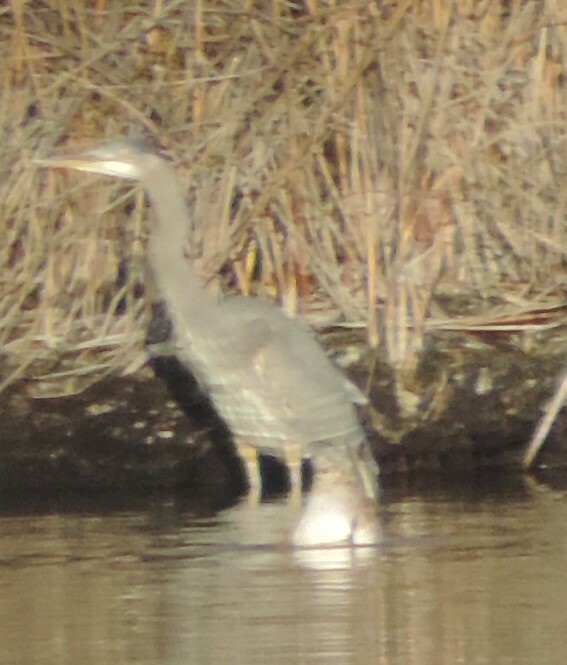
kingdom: Animalia
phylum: Chordata
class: Aves
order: Pelecaniformes
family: Ardeidae
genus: Ardea
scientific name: Ardea herodias
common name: Great blue heron
